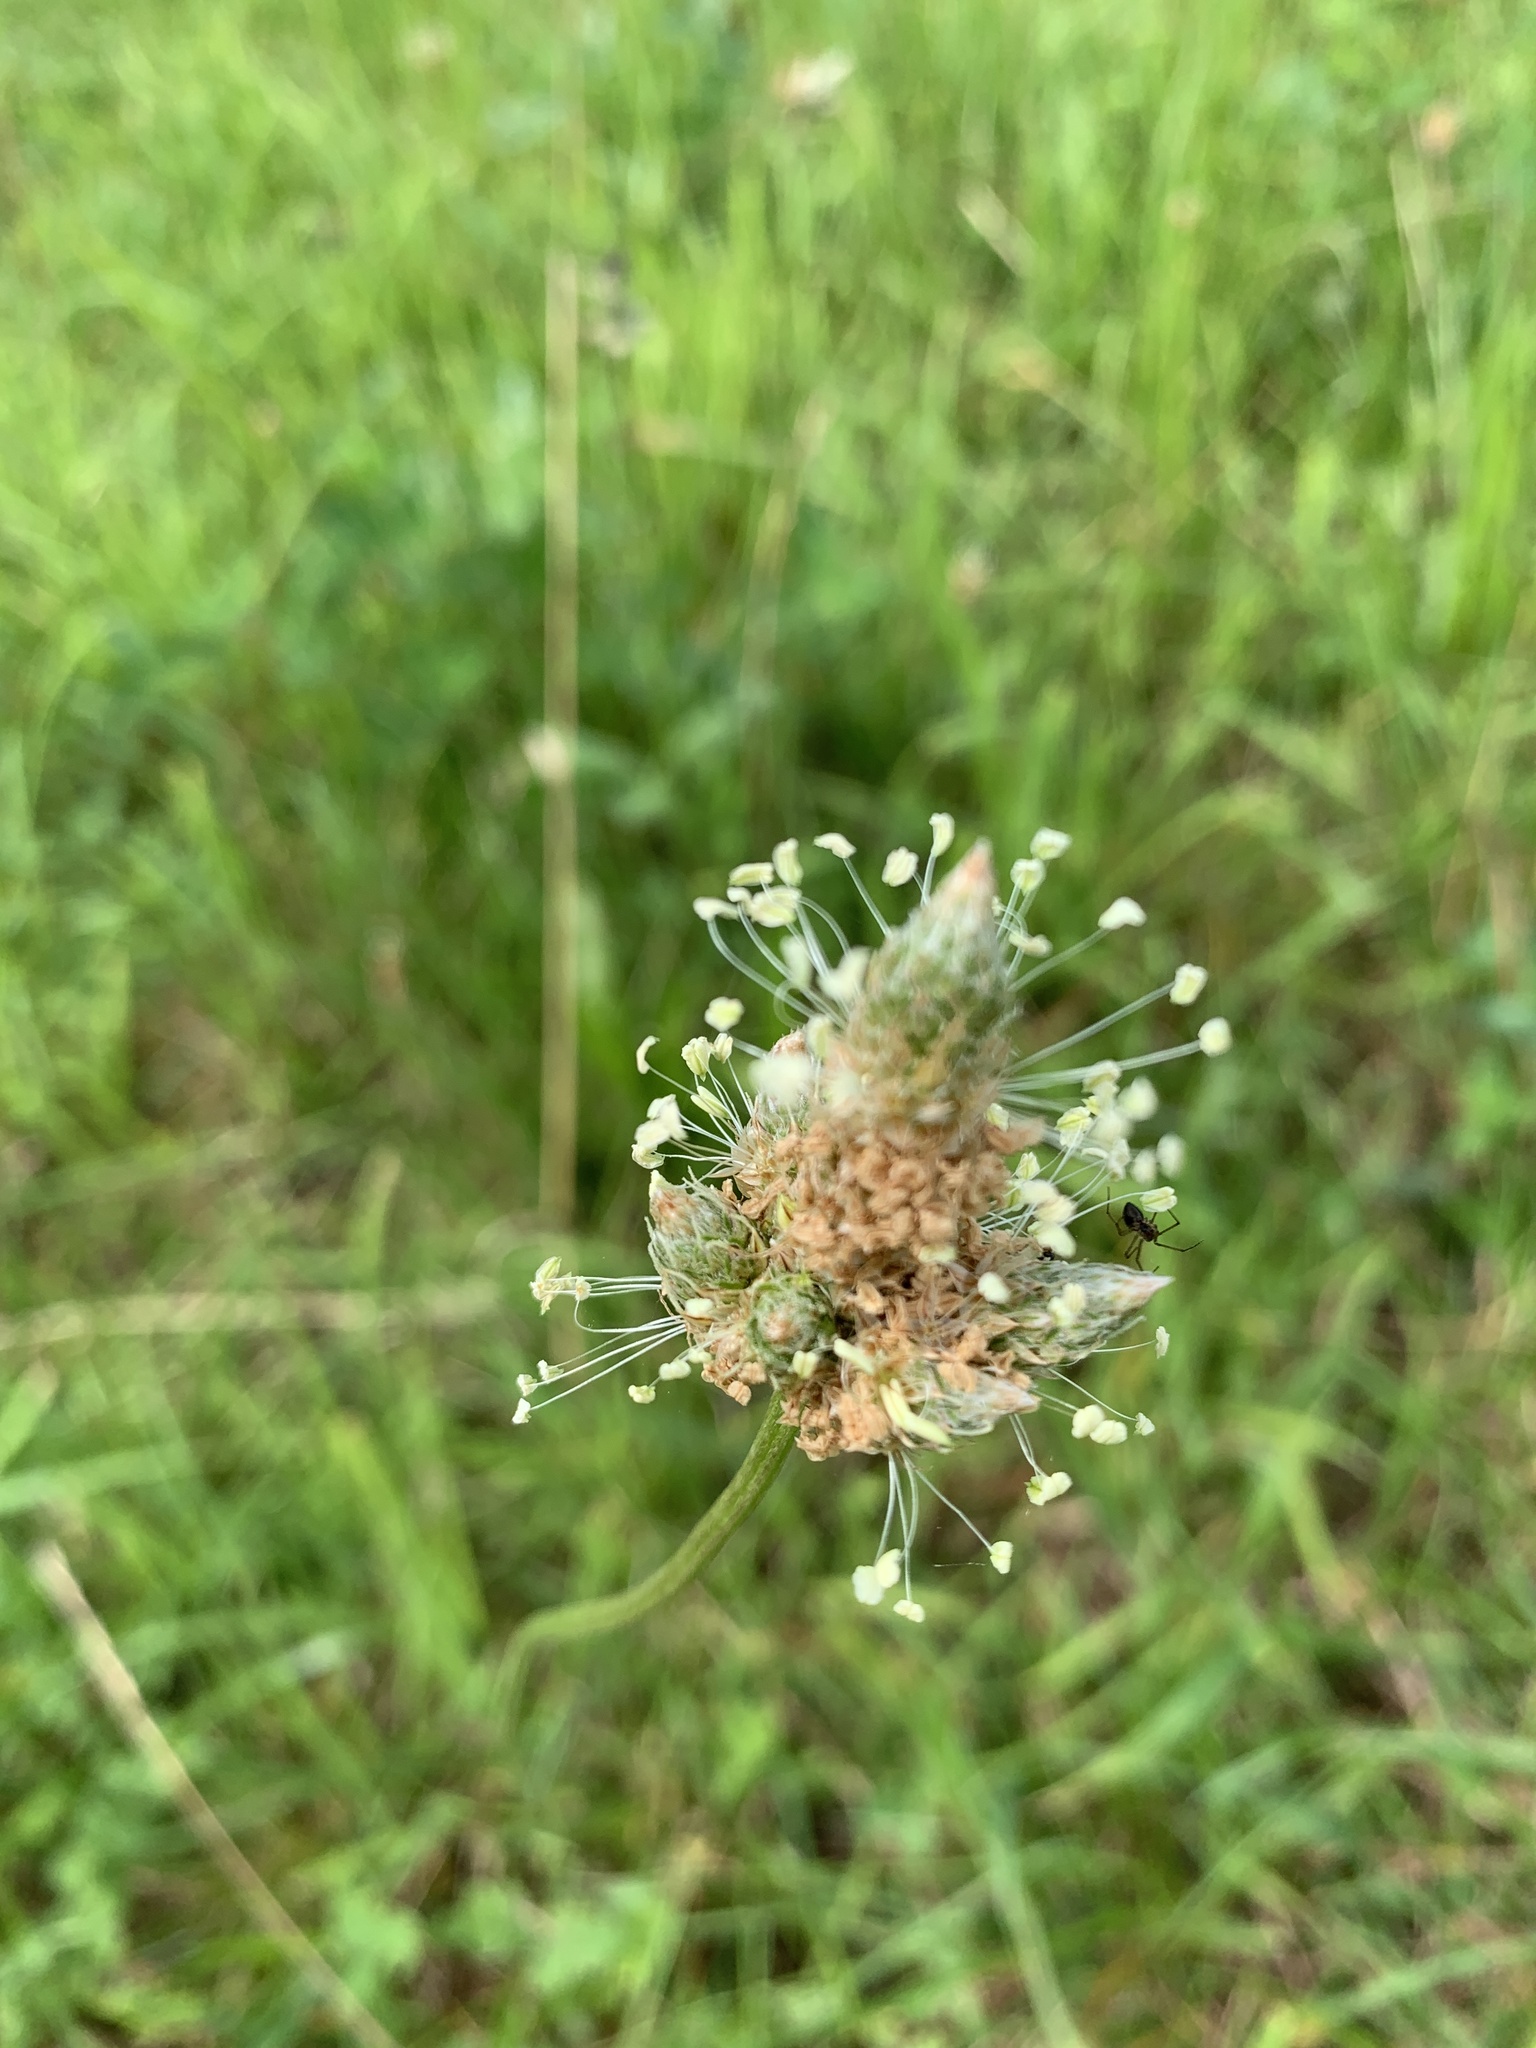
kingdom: Plantae
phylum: Tracheophyta
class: Magnoliopsida
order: Lamiales
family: Plantaginaceae
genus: Plantago
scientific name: Plantago lanceolata
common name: Ribwort plantain
